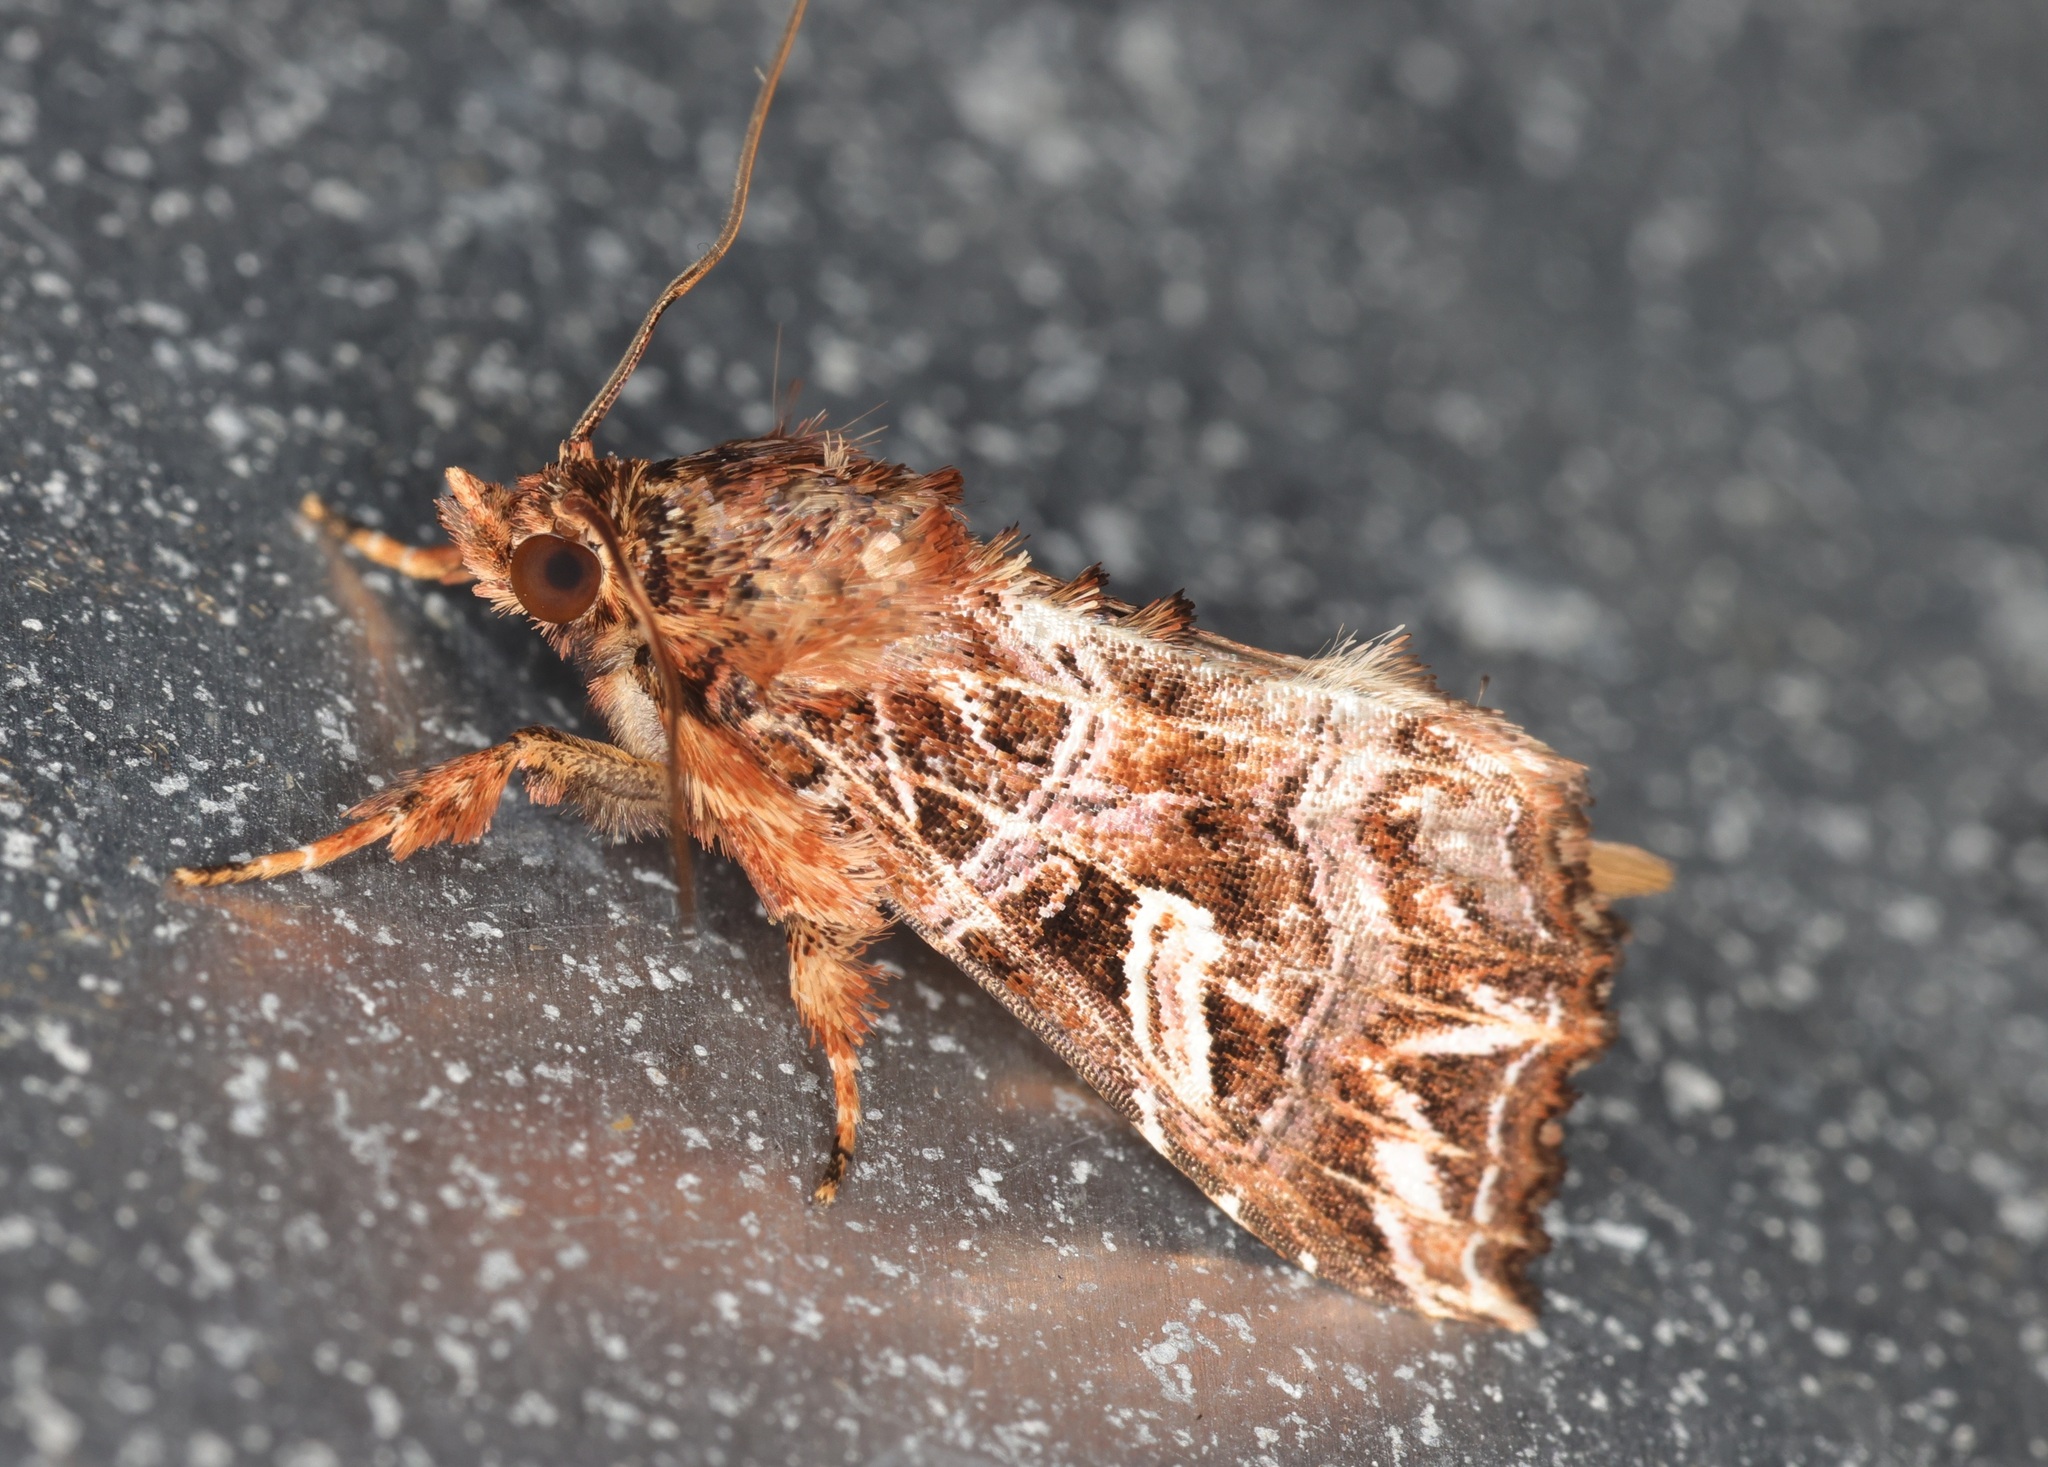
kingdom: Animalia
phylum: Arthropoda
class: Insecta
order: Lepidoptera
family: Noctuidae
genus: Callopistria
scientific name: Callopistria exotica
